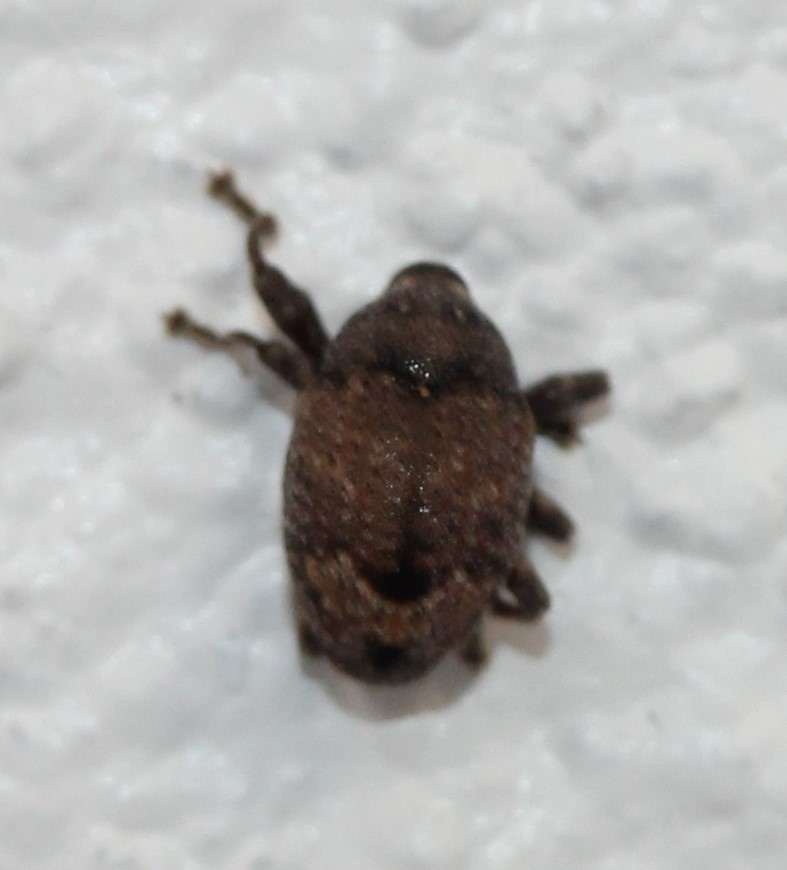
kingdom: Animalia
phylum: Arthropoda
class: Insecta
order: Coleoptera
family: Curculionidae
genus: Pseudomopsis
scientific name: Pseudomopsis inflatus
